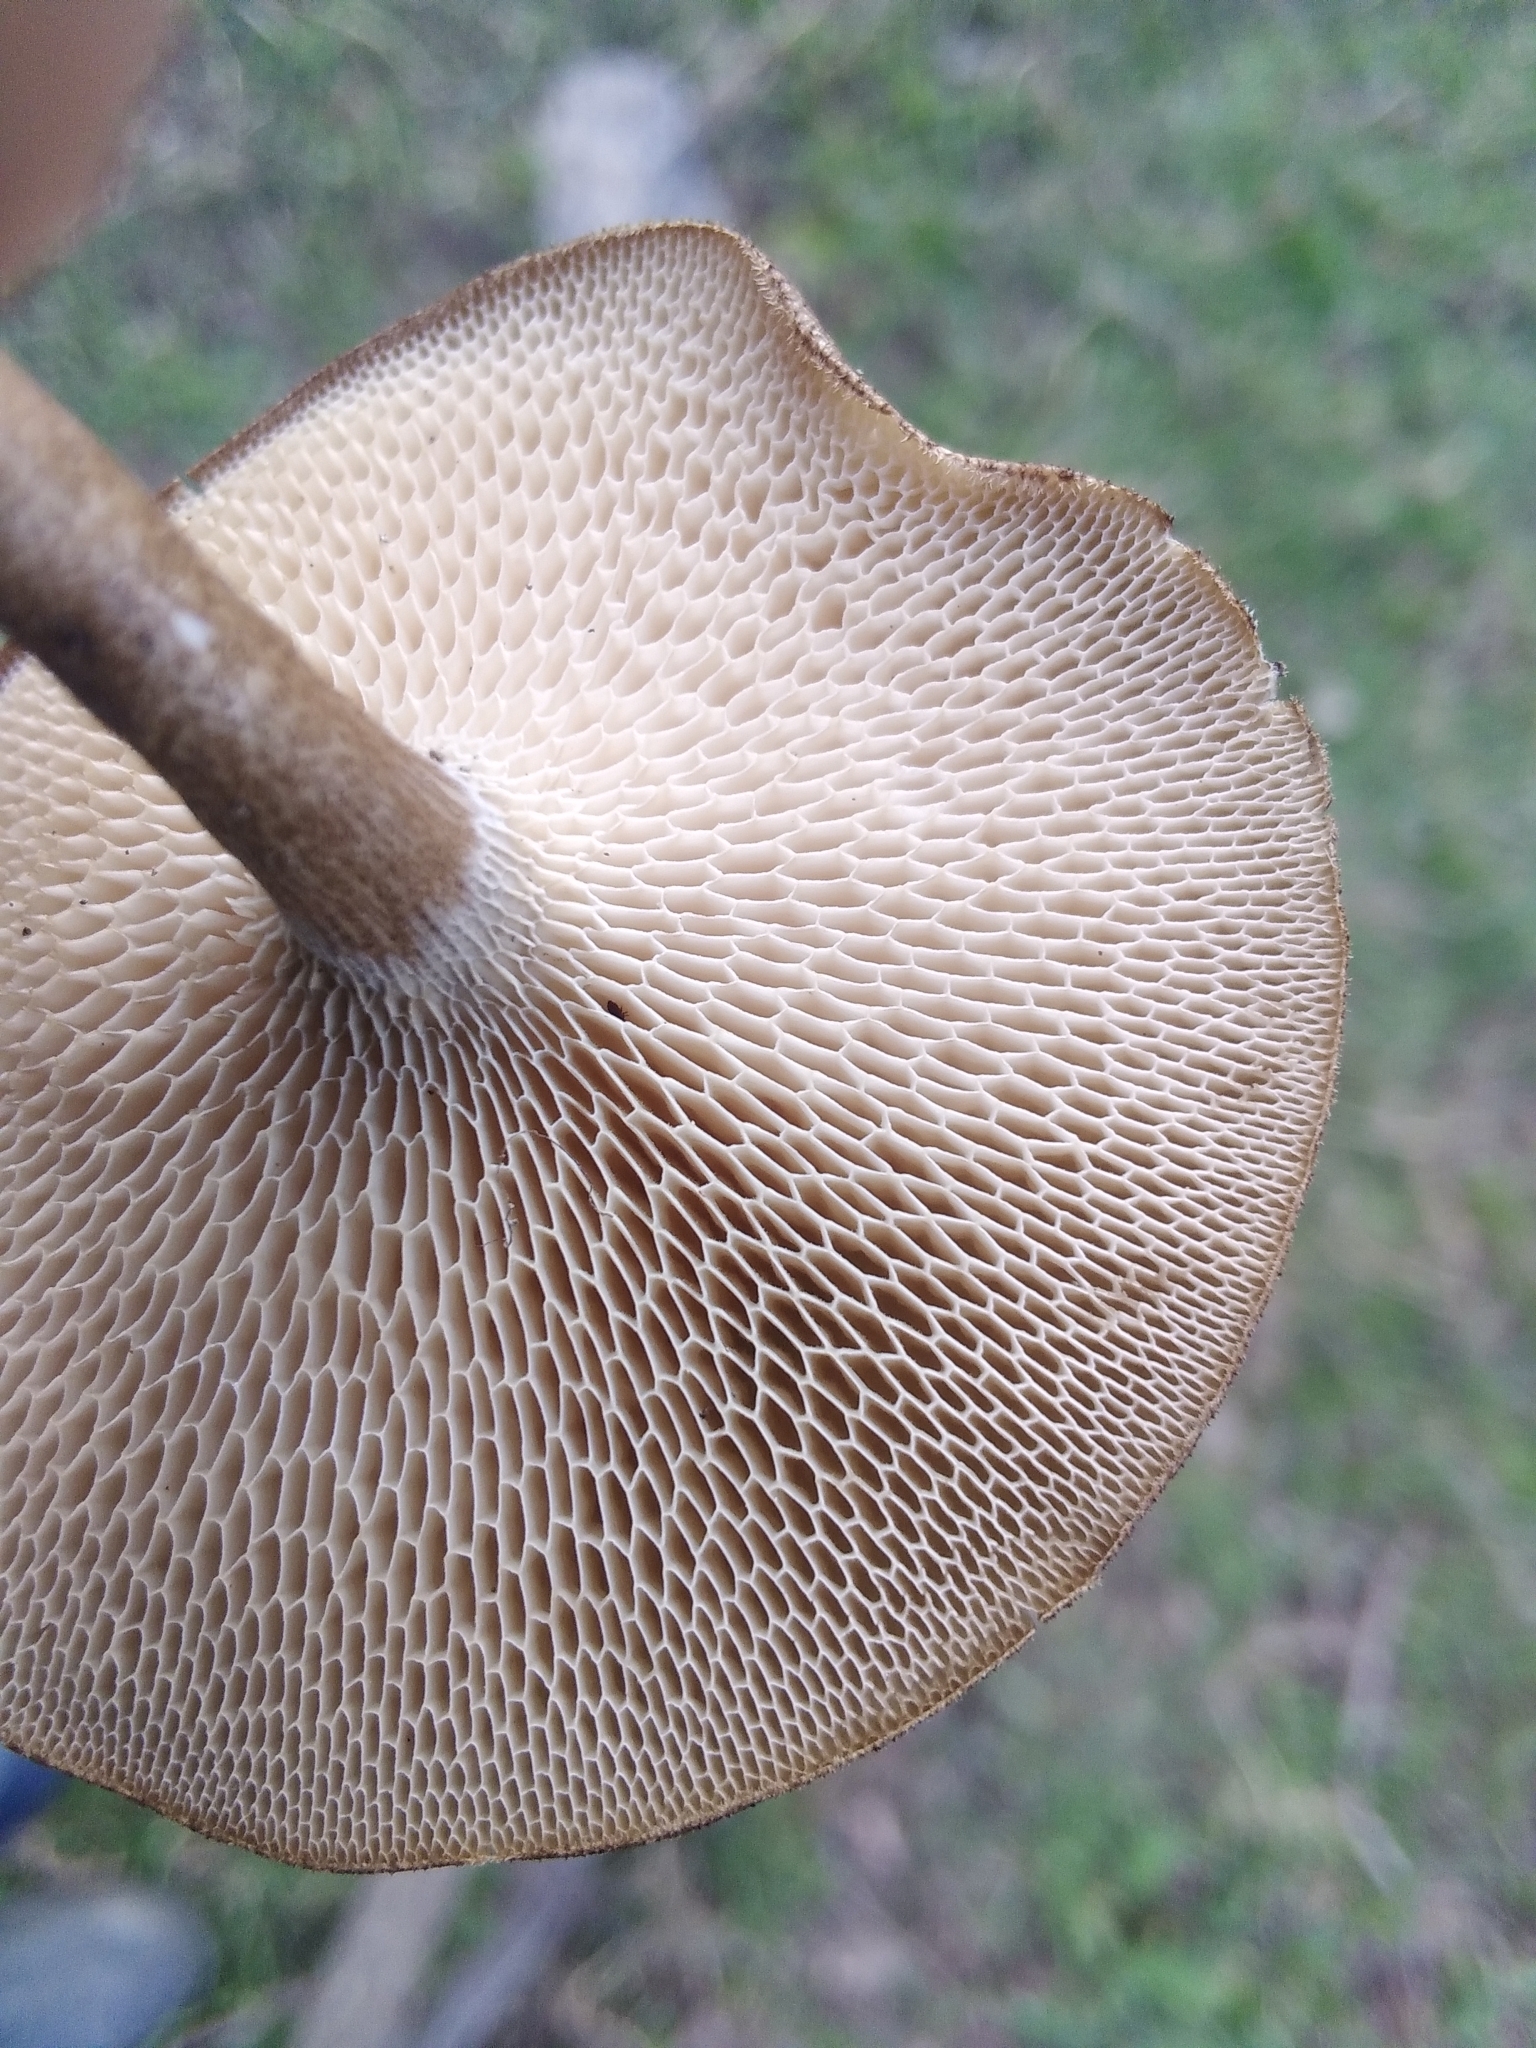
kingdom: Fungi
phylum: Basidiomycota
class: Agaricomycetes
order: Polyporales
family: Polyporaceae
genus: Lentinus
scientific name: Lentinus arcularius
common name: Spring polypore
